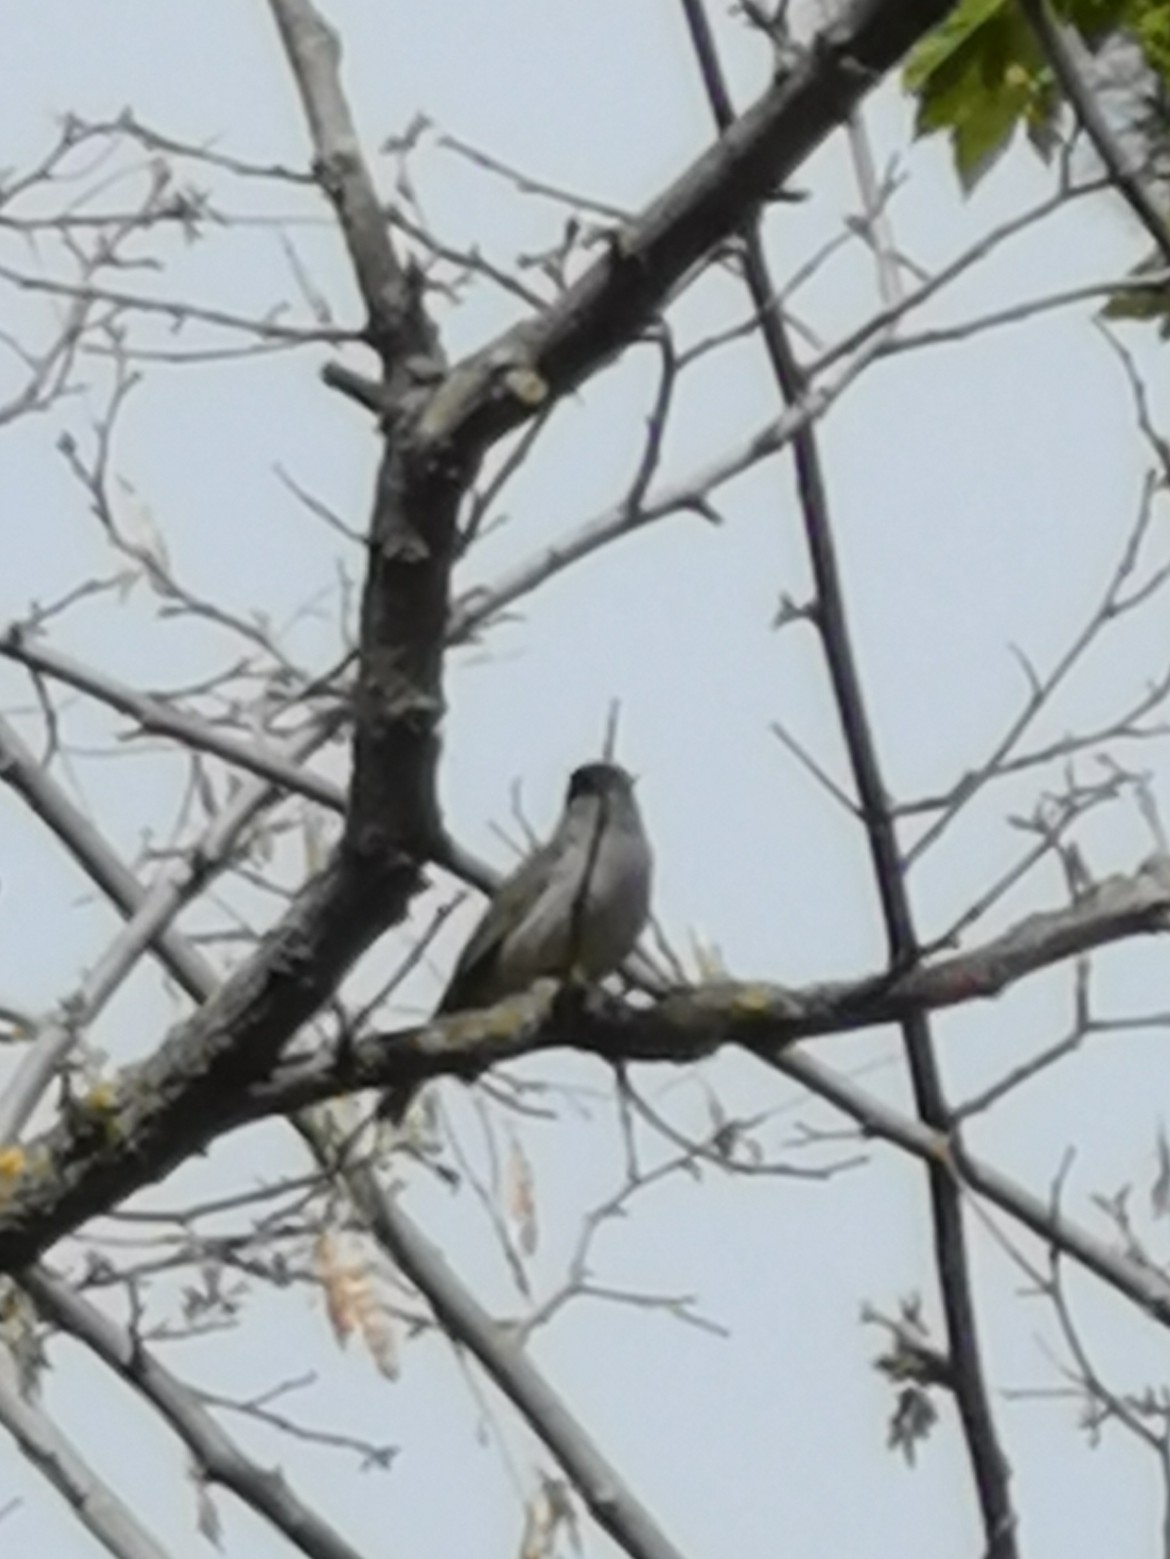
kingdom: Animalia
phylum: Chordata
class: Aves
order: Passeriformes
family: Sylviidae
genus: Sylvia
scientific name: Sylvia atricapilla
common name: Eurasian blackcap
